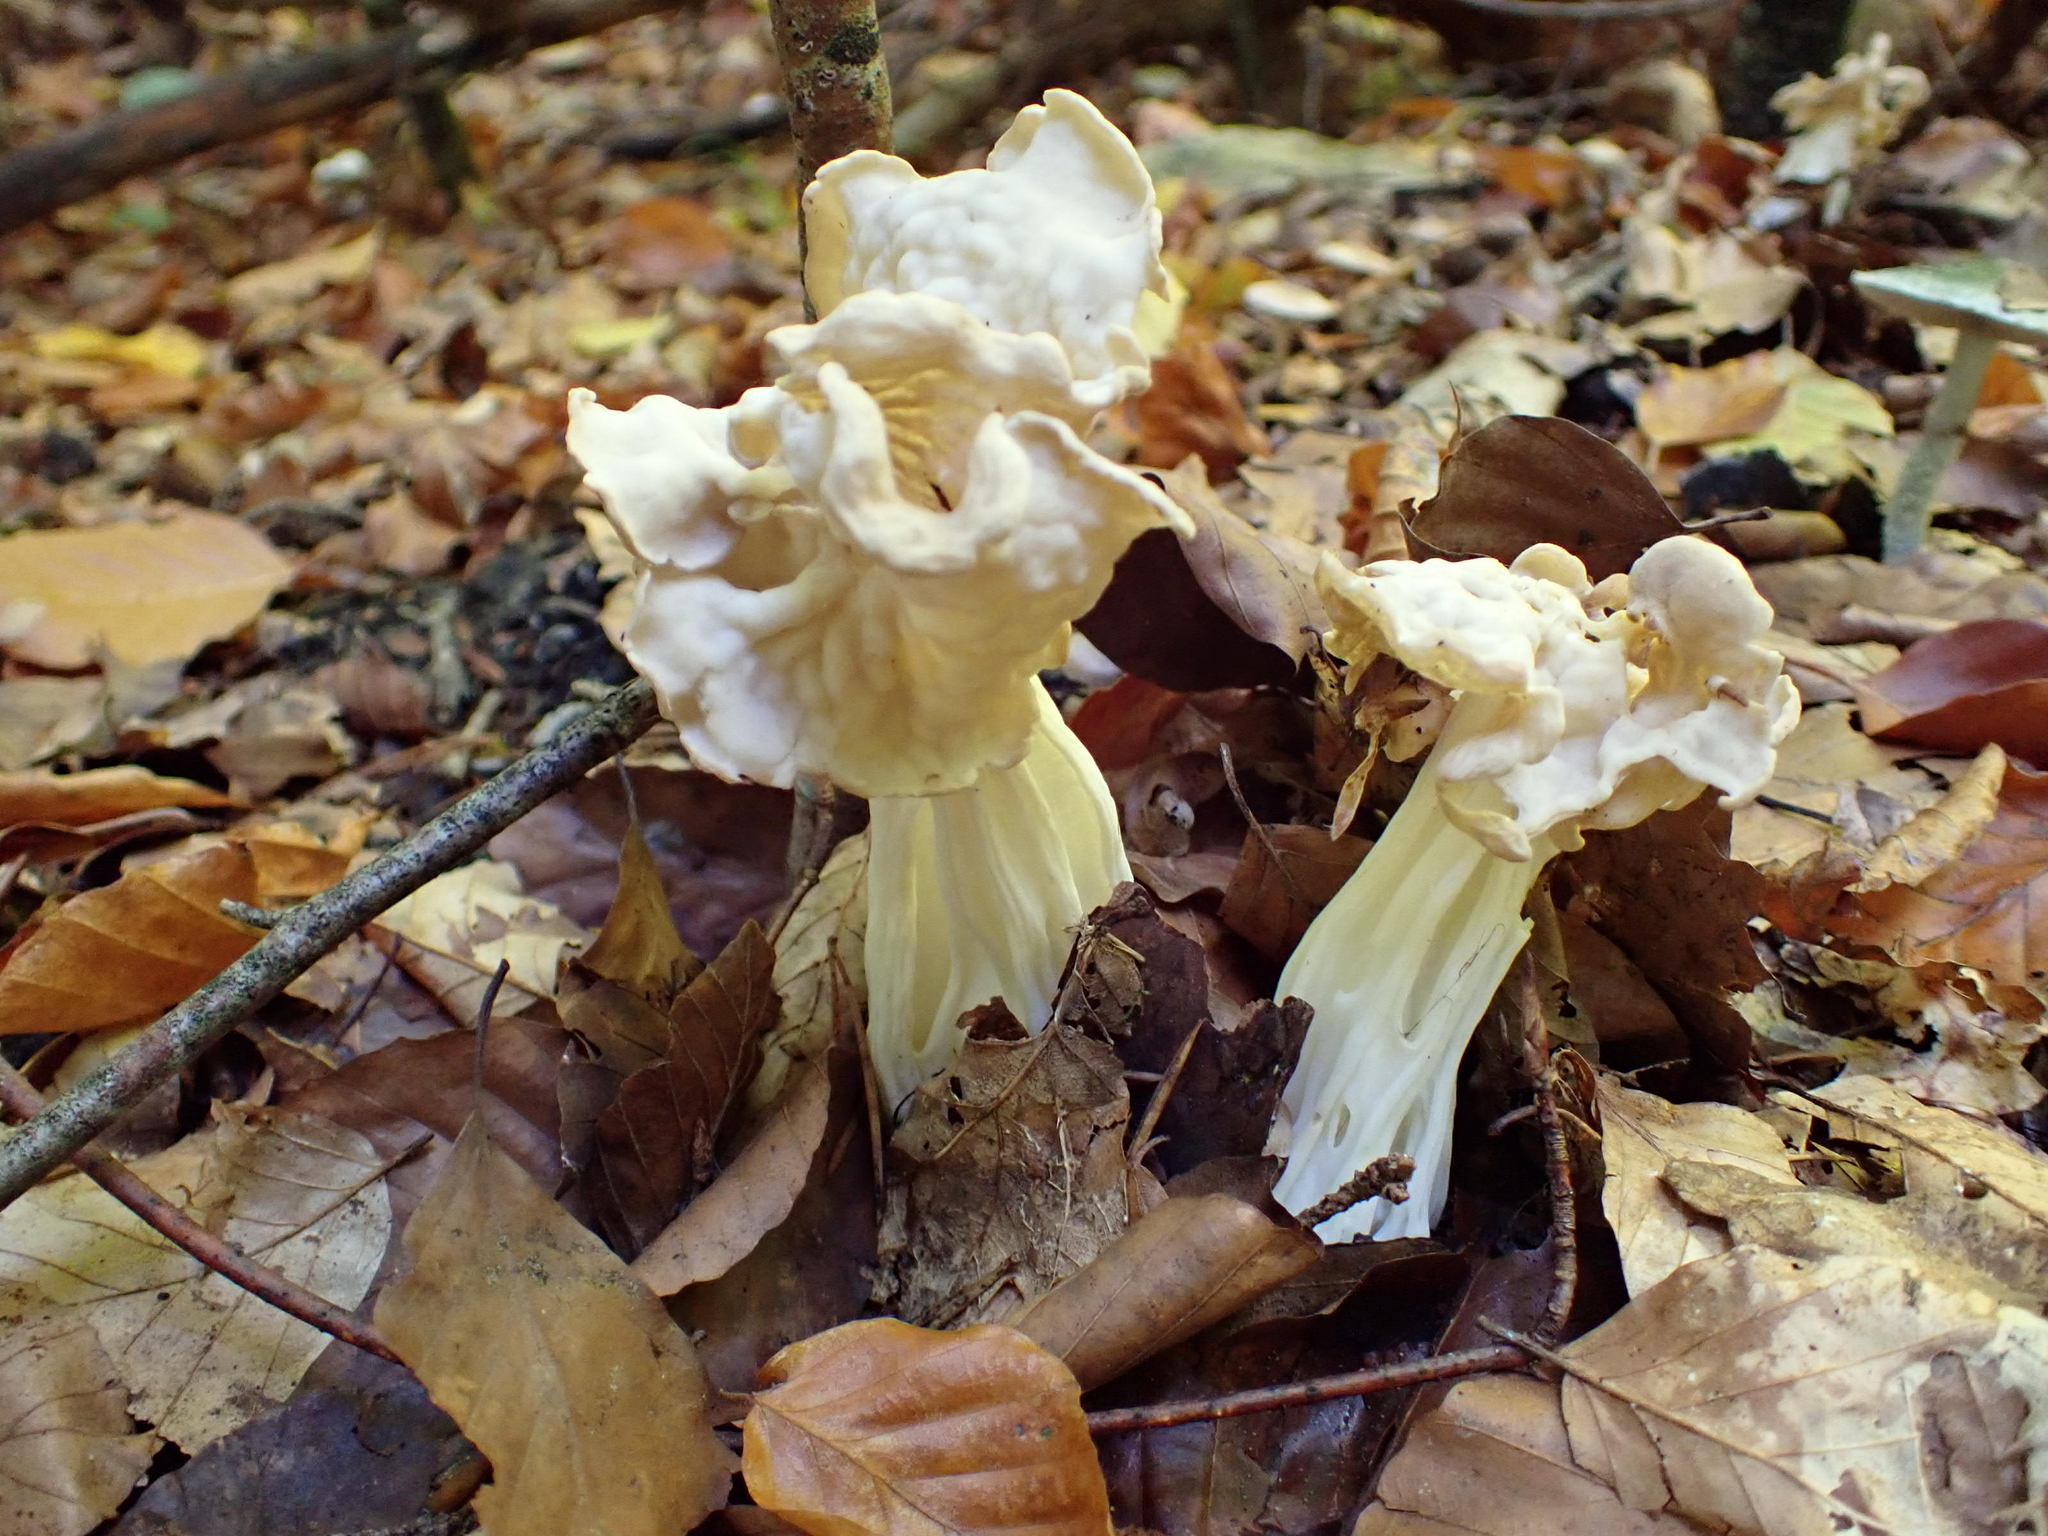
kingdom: Fungi
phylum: Ascomycota
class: Pezizomycetes
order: Pezizales
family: Helvellaceae
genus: Helvella
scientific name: Helvella crispa
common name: White saddle
